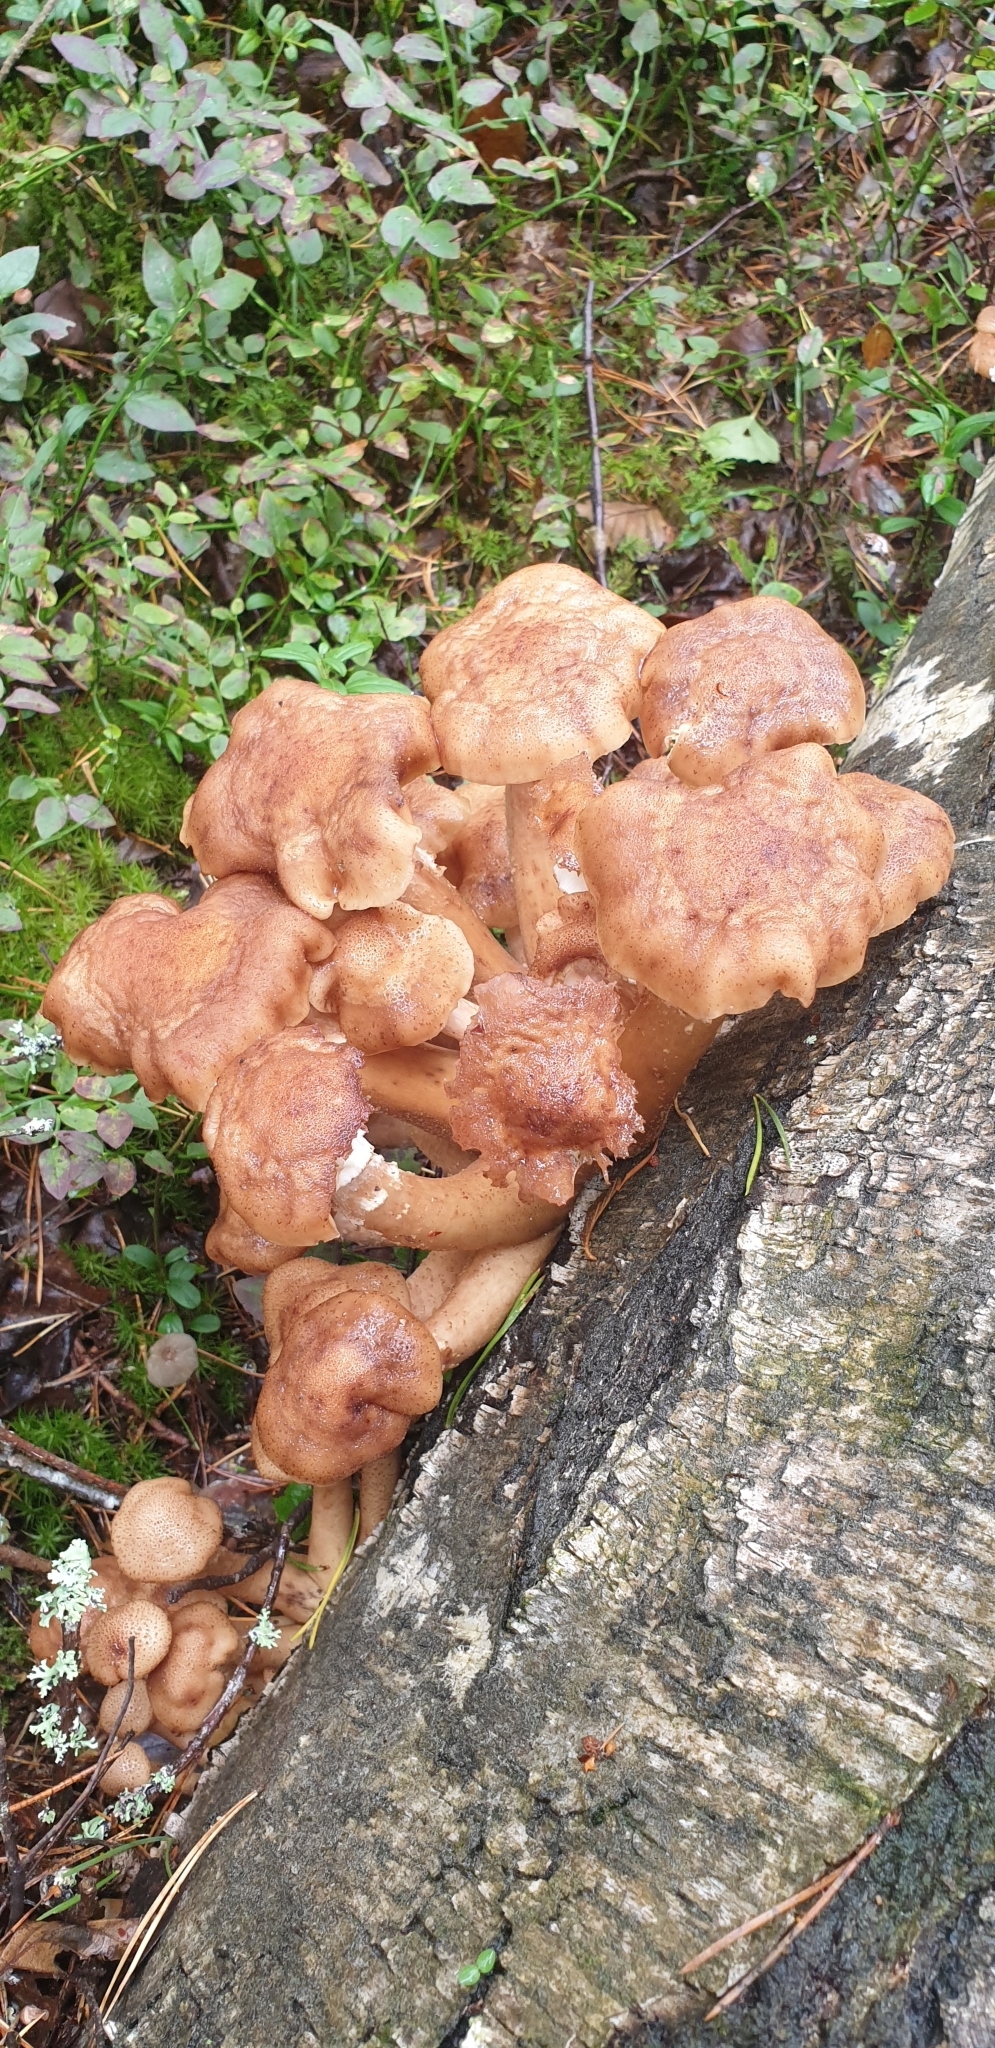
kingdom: Fungi
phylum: Basidiomycota
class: Agaricomycetes
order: Agaricales
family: Physalacriaceae
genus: Armillaria
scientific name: Armillaria borealis
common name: Northern honey fungus
